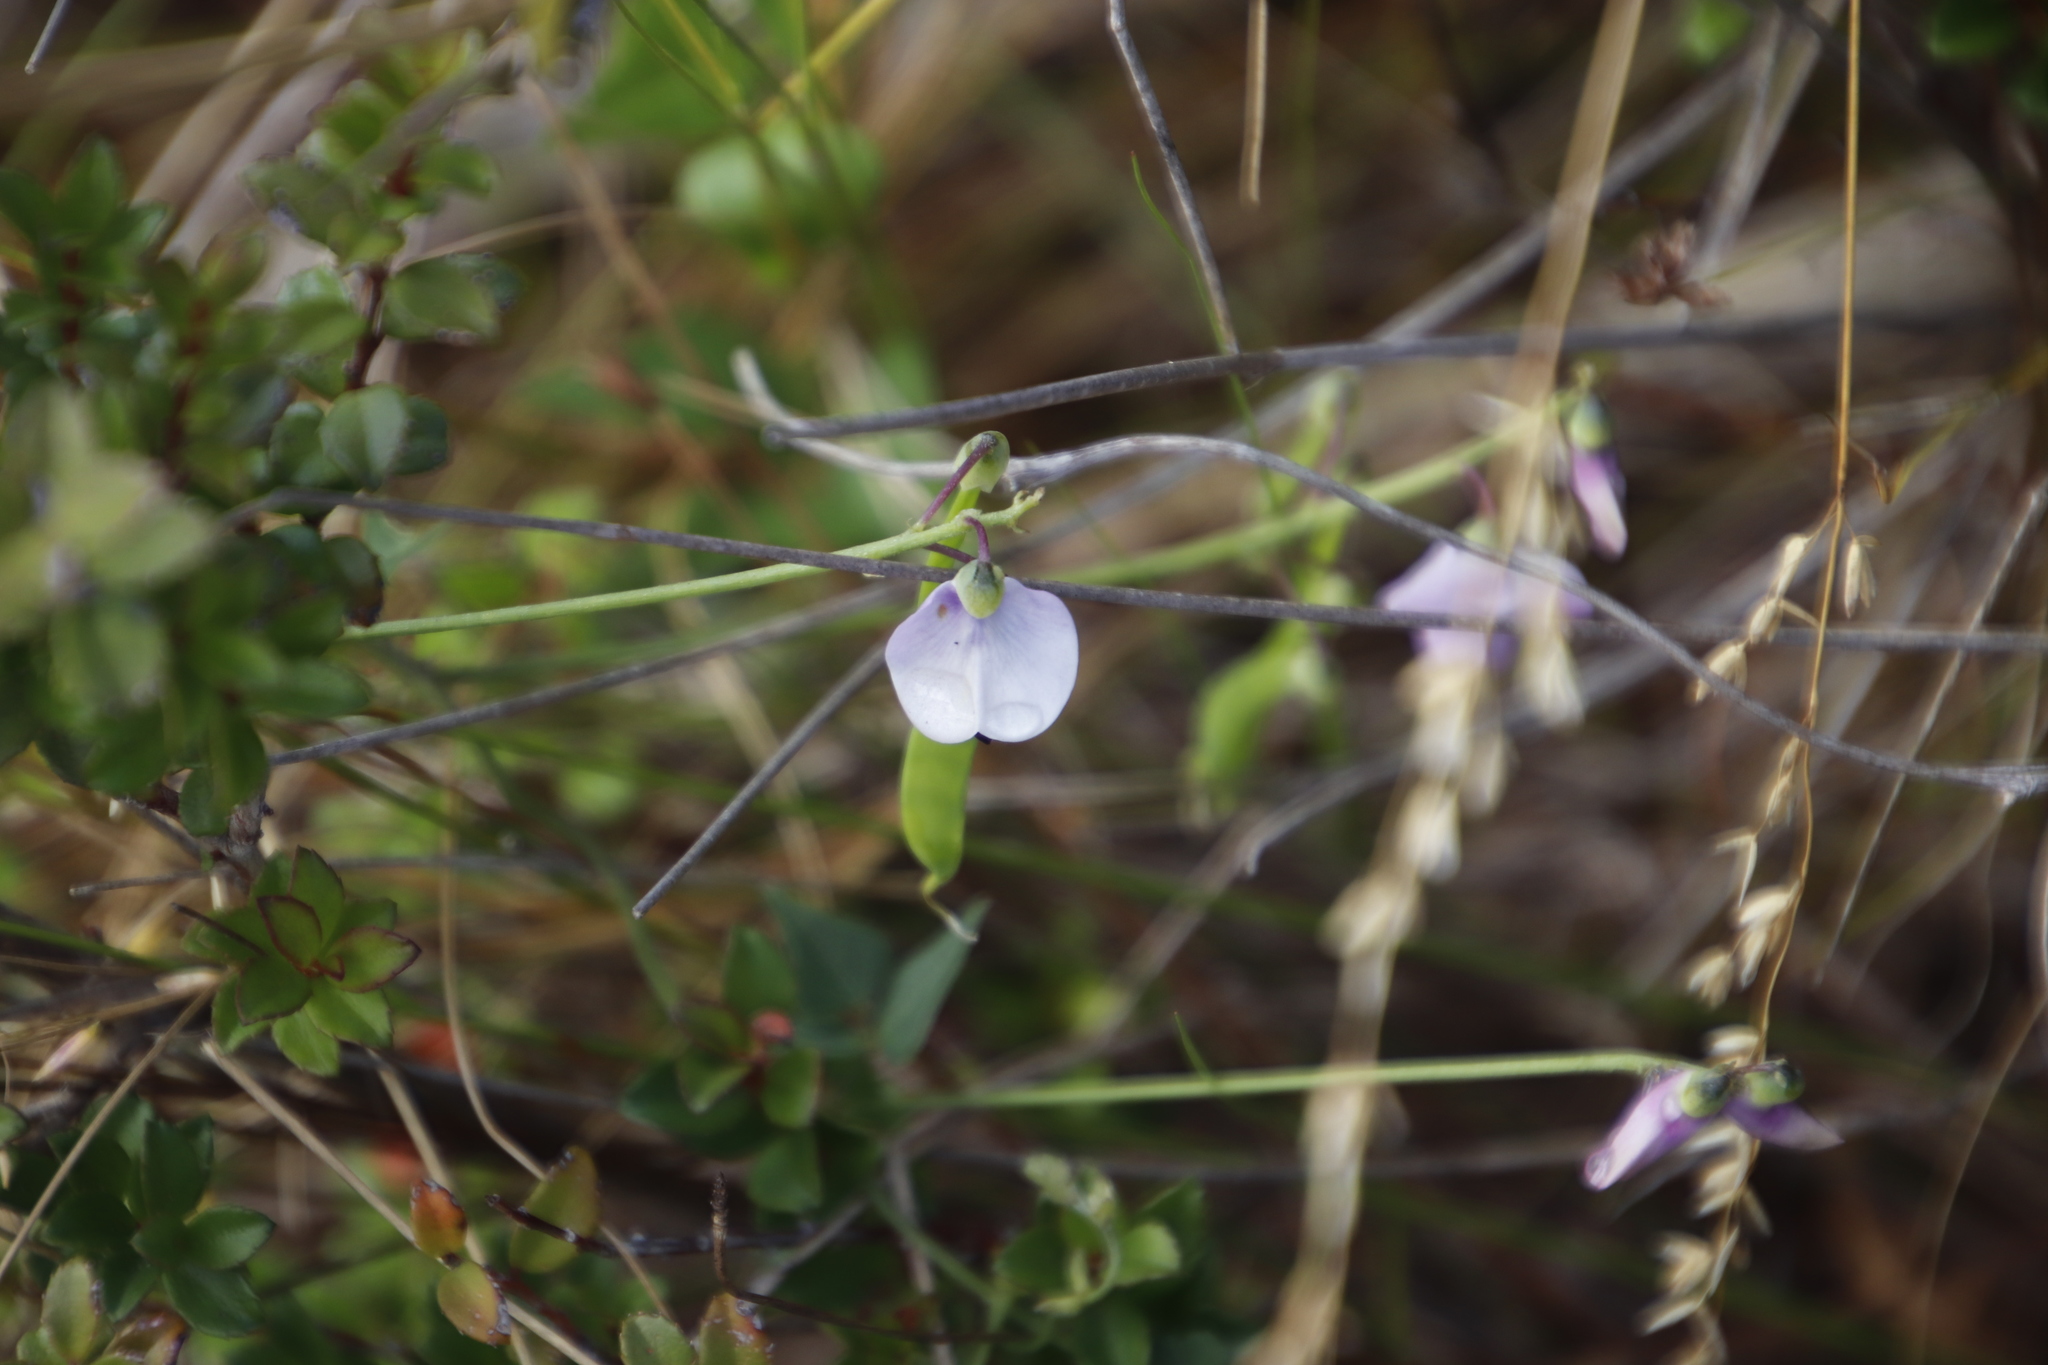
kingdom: Plantae
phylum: Tracheophyta
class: Magnoliopsida
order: Fabales
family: Fabaceae
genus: Dipogon
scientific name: Dipogon lignosus
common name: Okie bean
